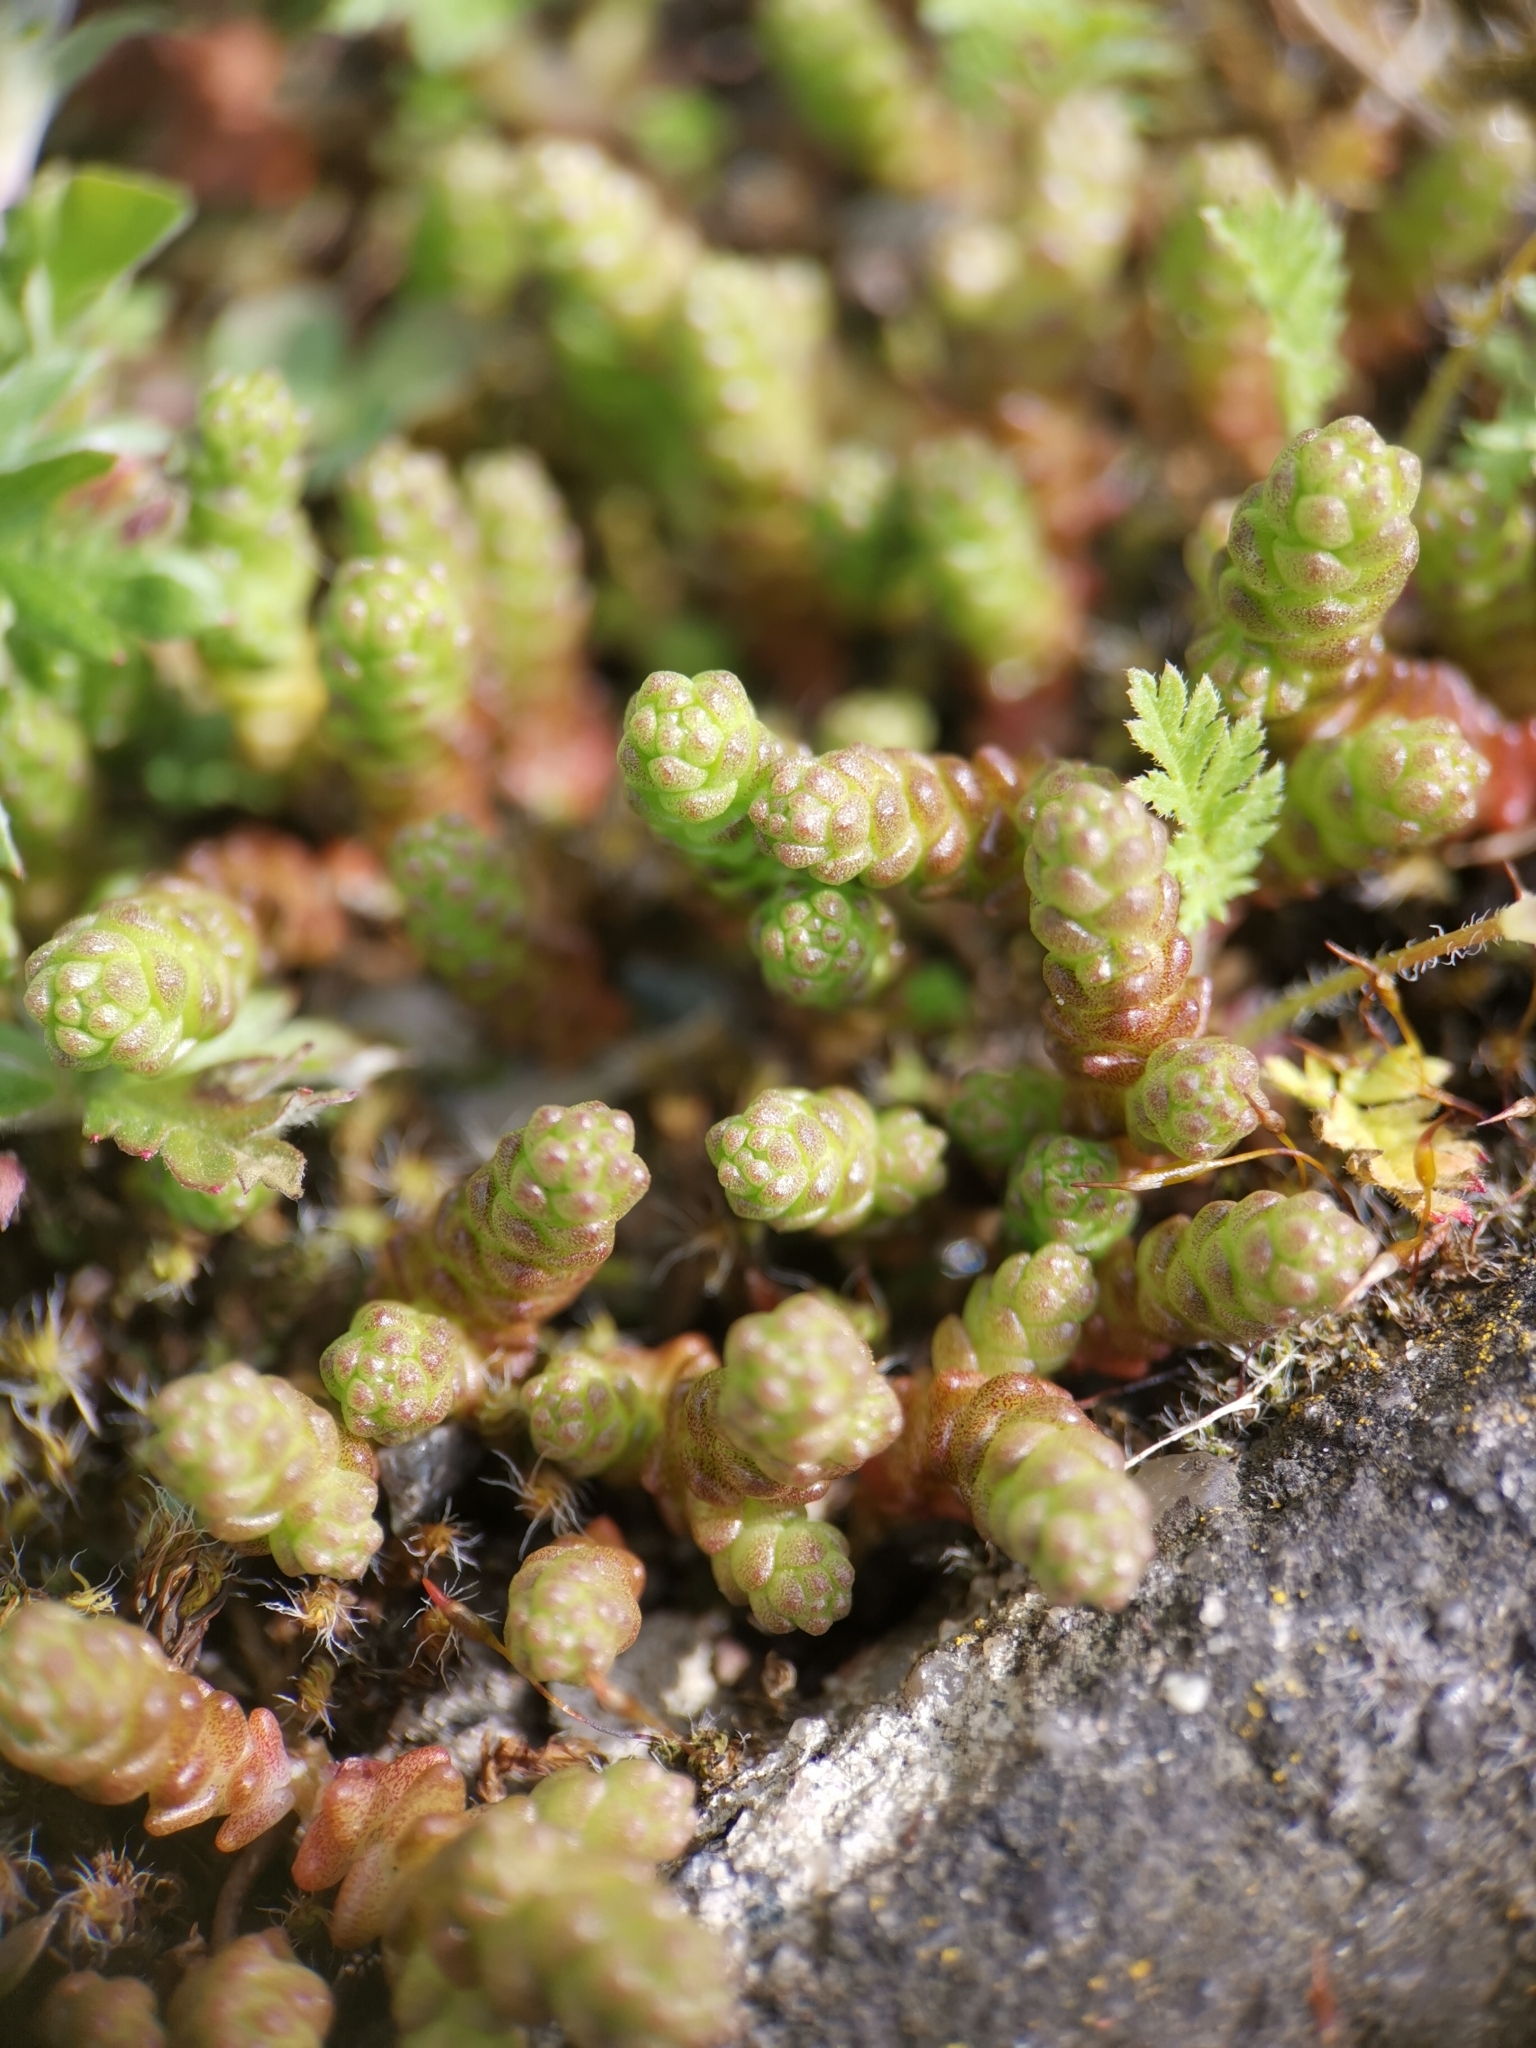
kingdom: Plantae
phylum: Tracheophyta
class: Magnoliopsida
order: Saxifragales
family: Crassulaceae
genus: Sedum
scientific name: Sedum acre
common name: Biting stonecrop
